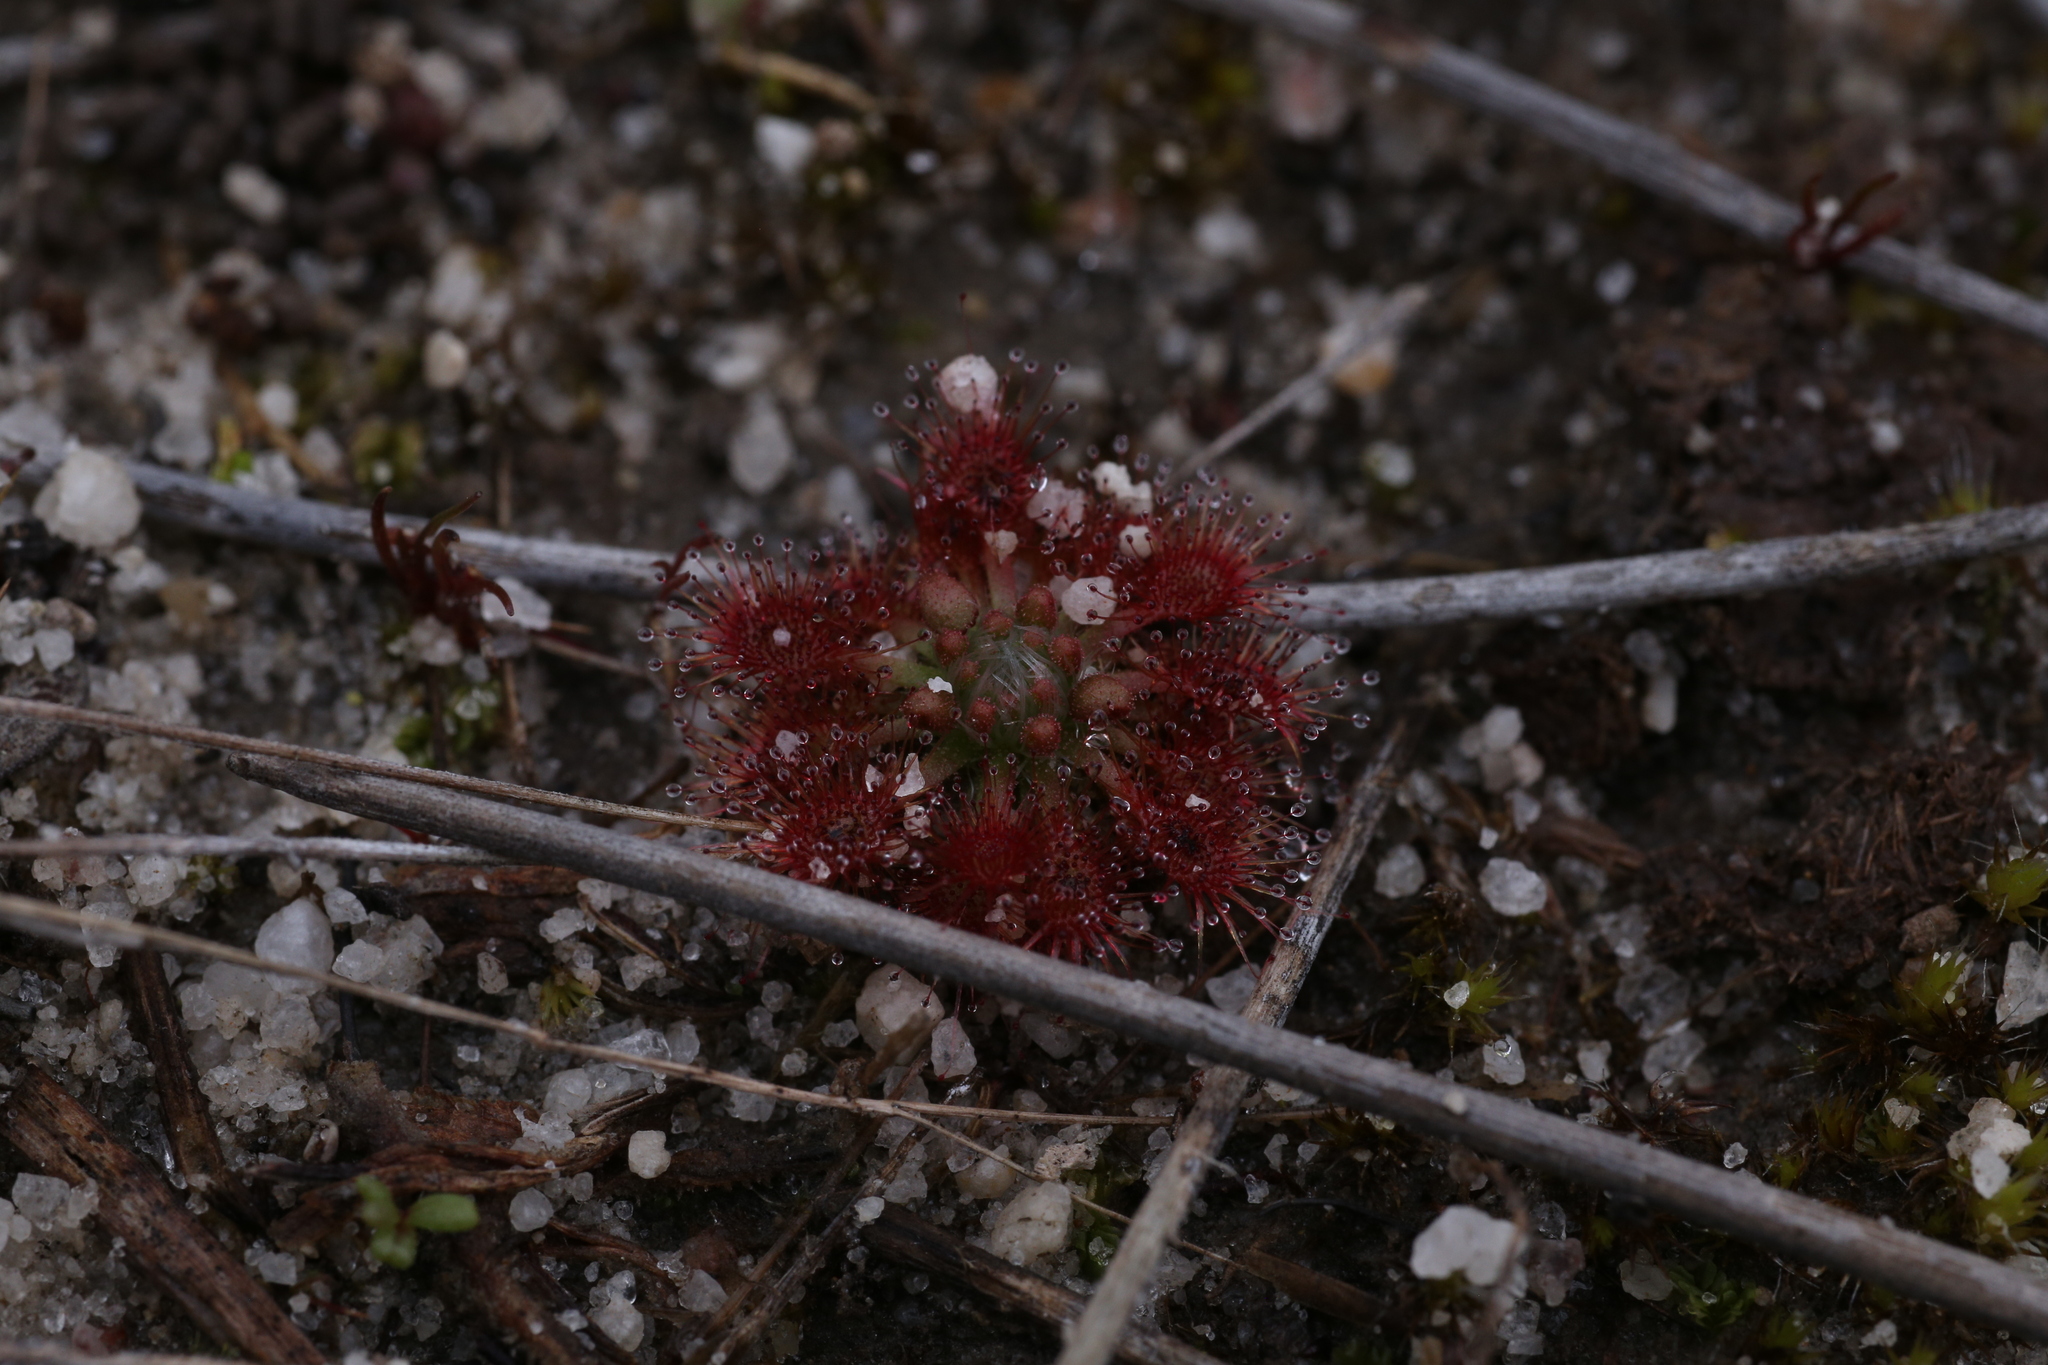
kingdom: Plantae
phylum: Tracheophyta
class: Magnoliopsida
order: Caryophyllales
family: Droseraceae
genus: Drosera
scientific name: Drosera patens
